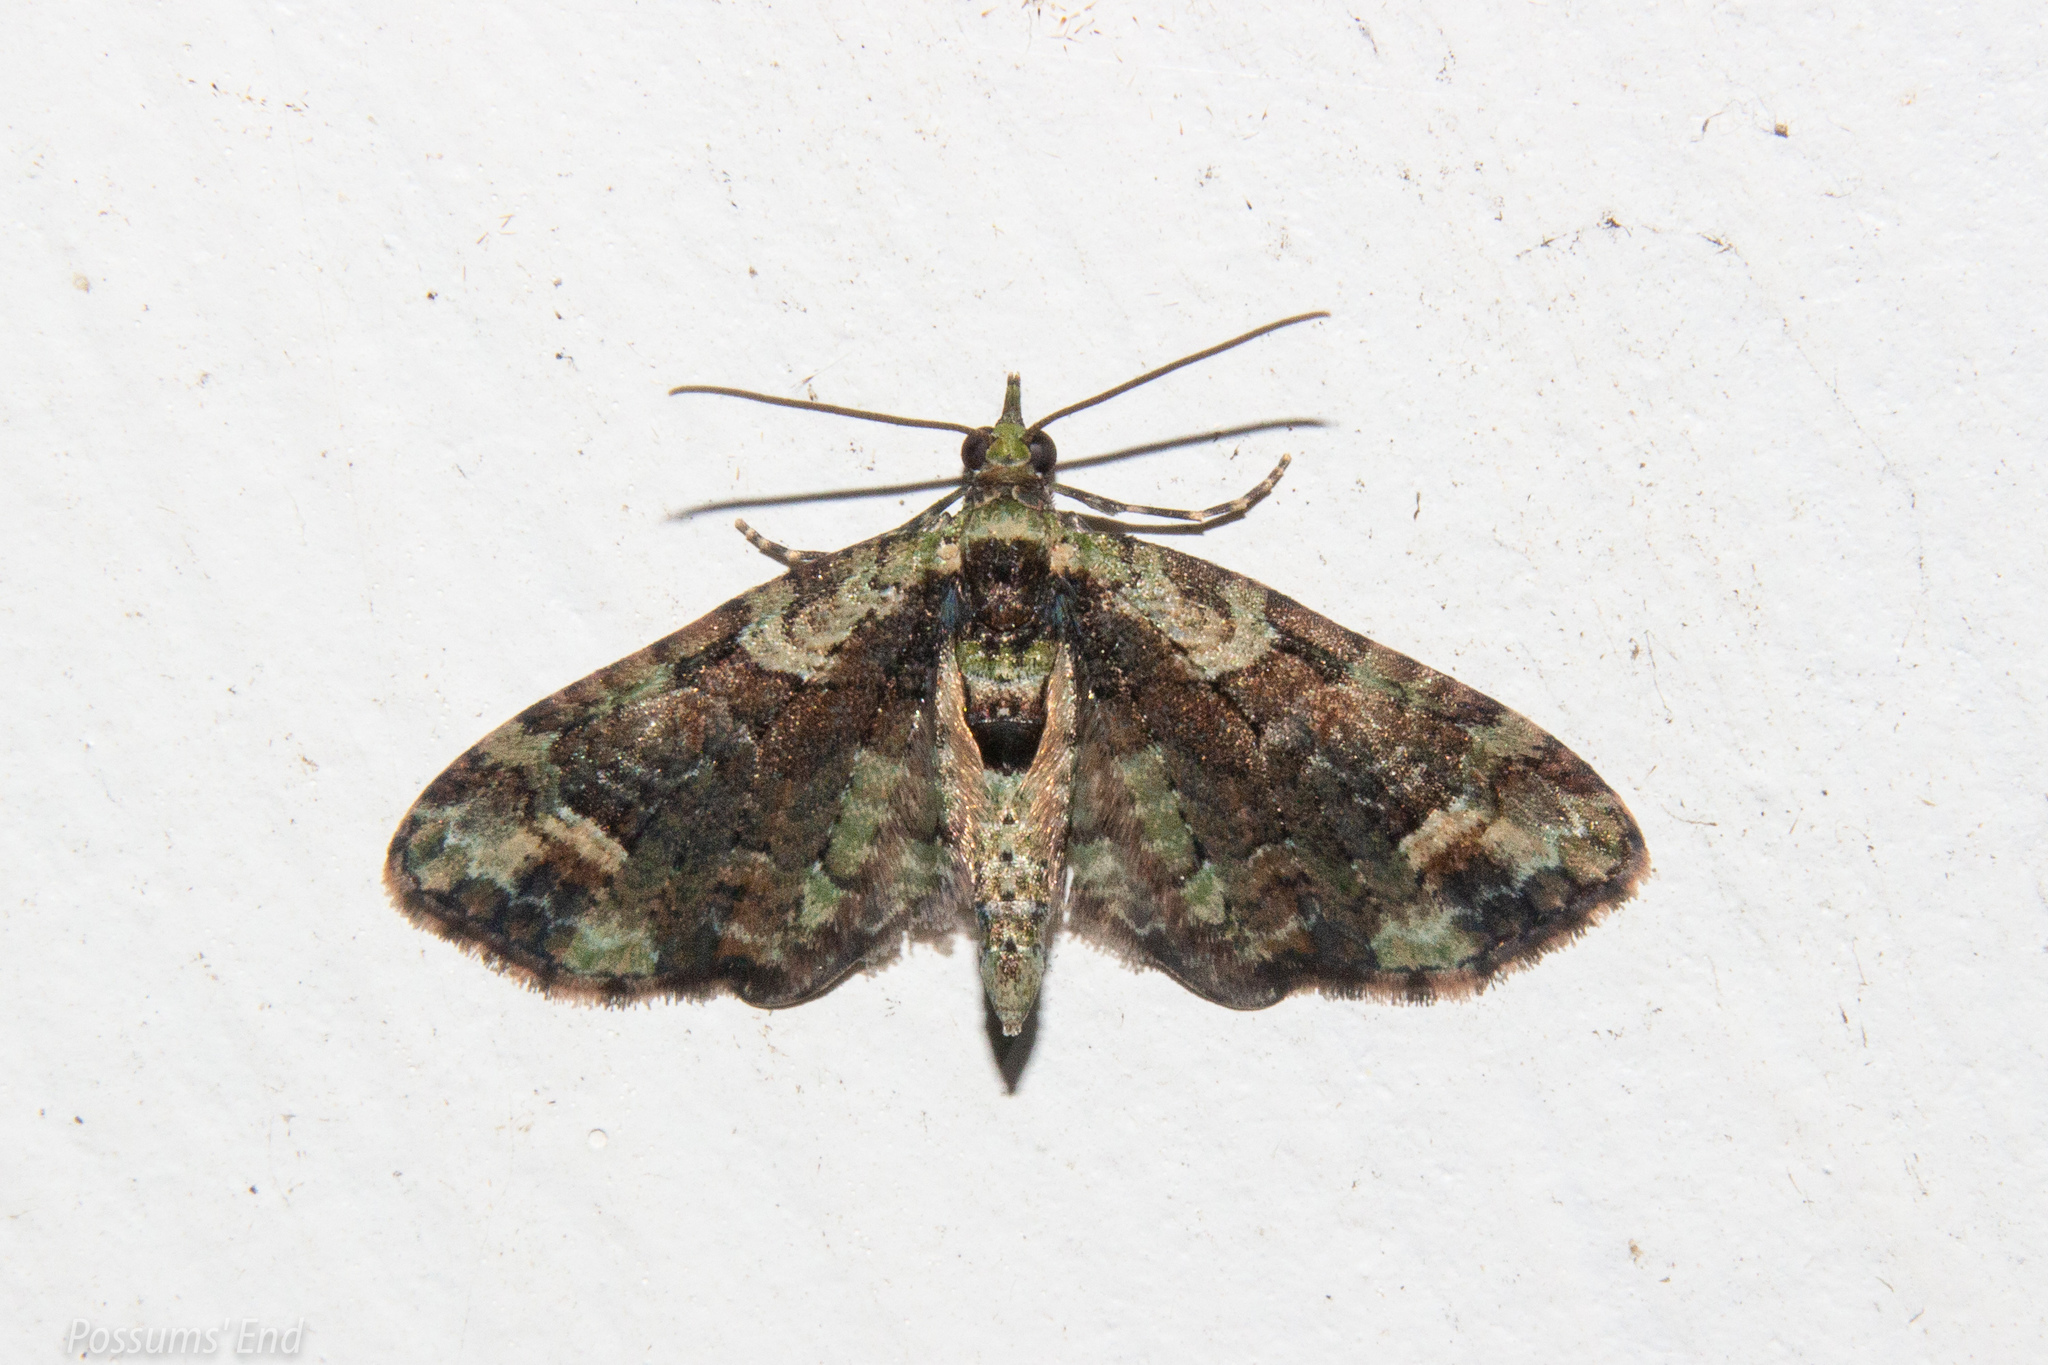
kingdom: Animalia
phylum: Arthropoda
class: Insecta
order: Lepidoptera
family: Geometridae
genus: Idaea
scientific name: Idaea mutanda
